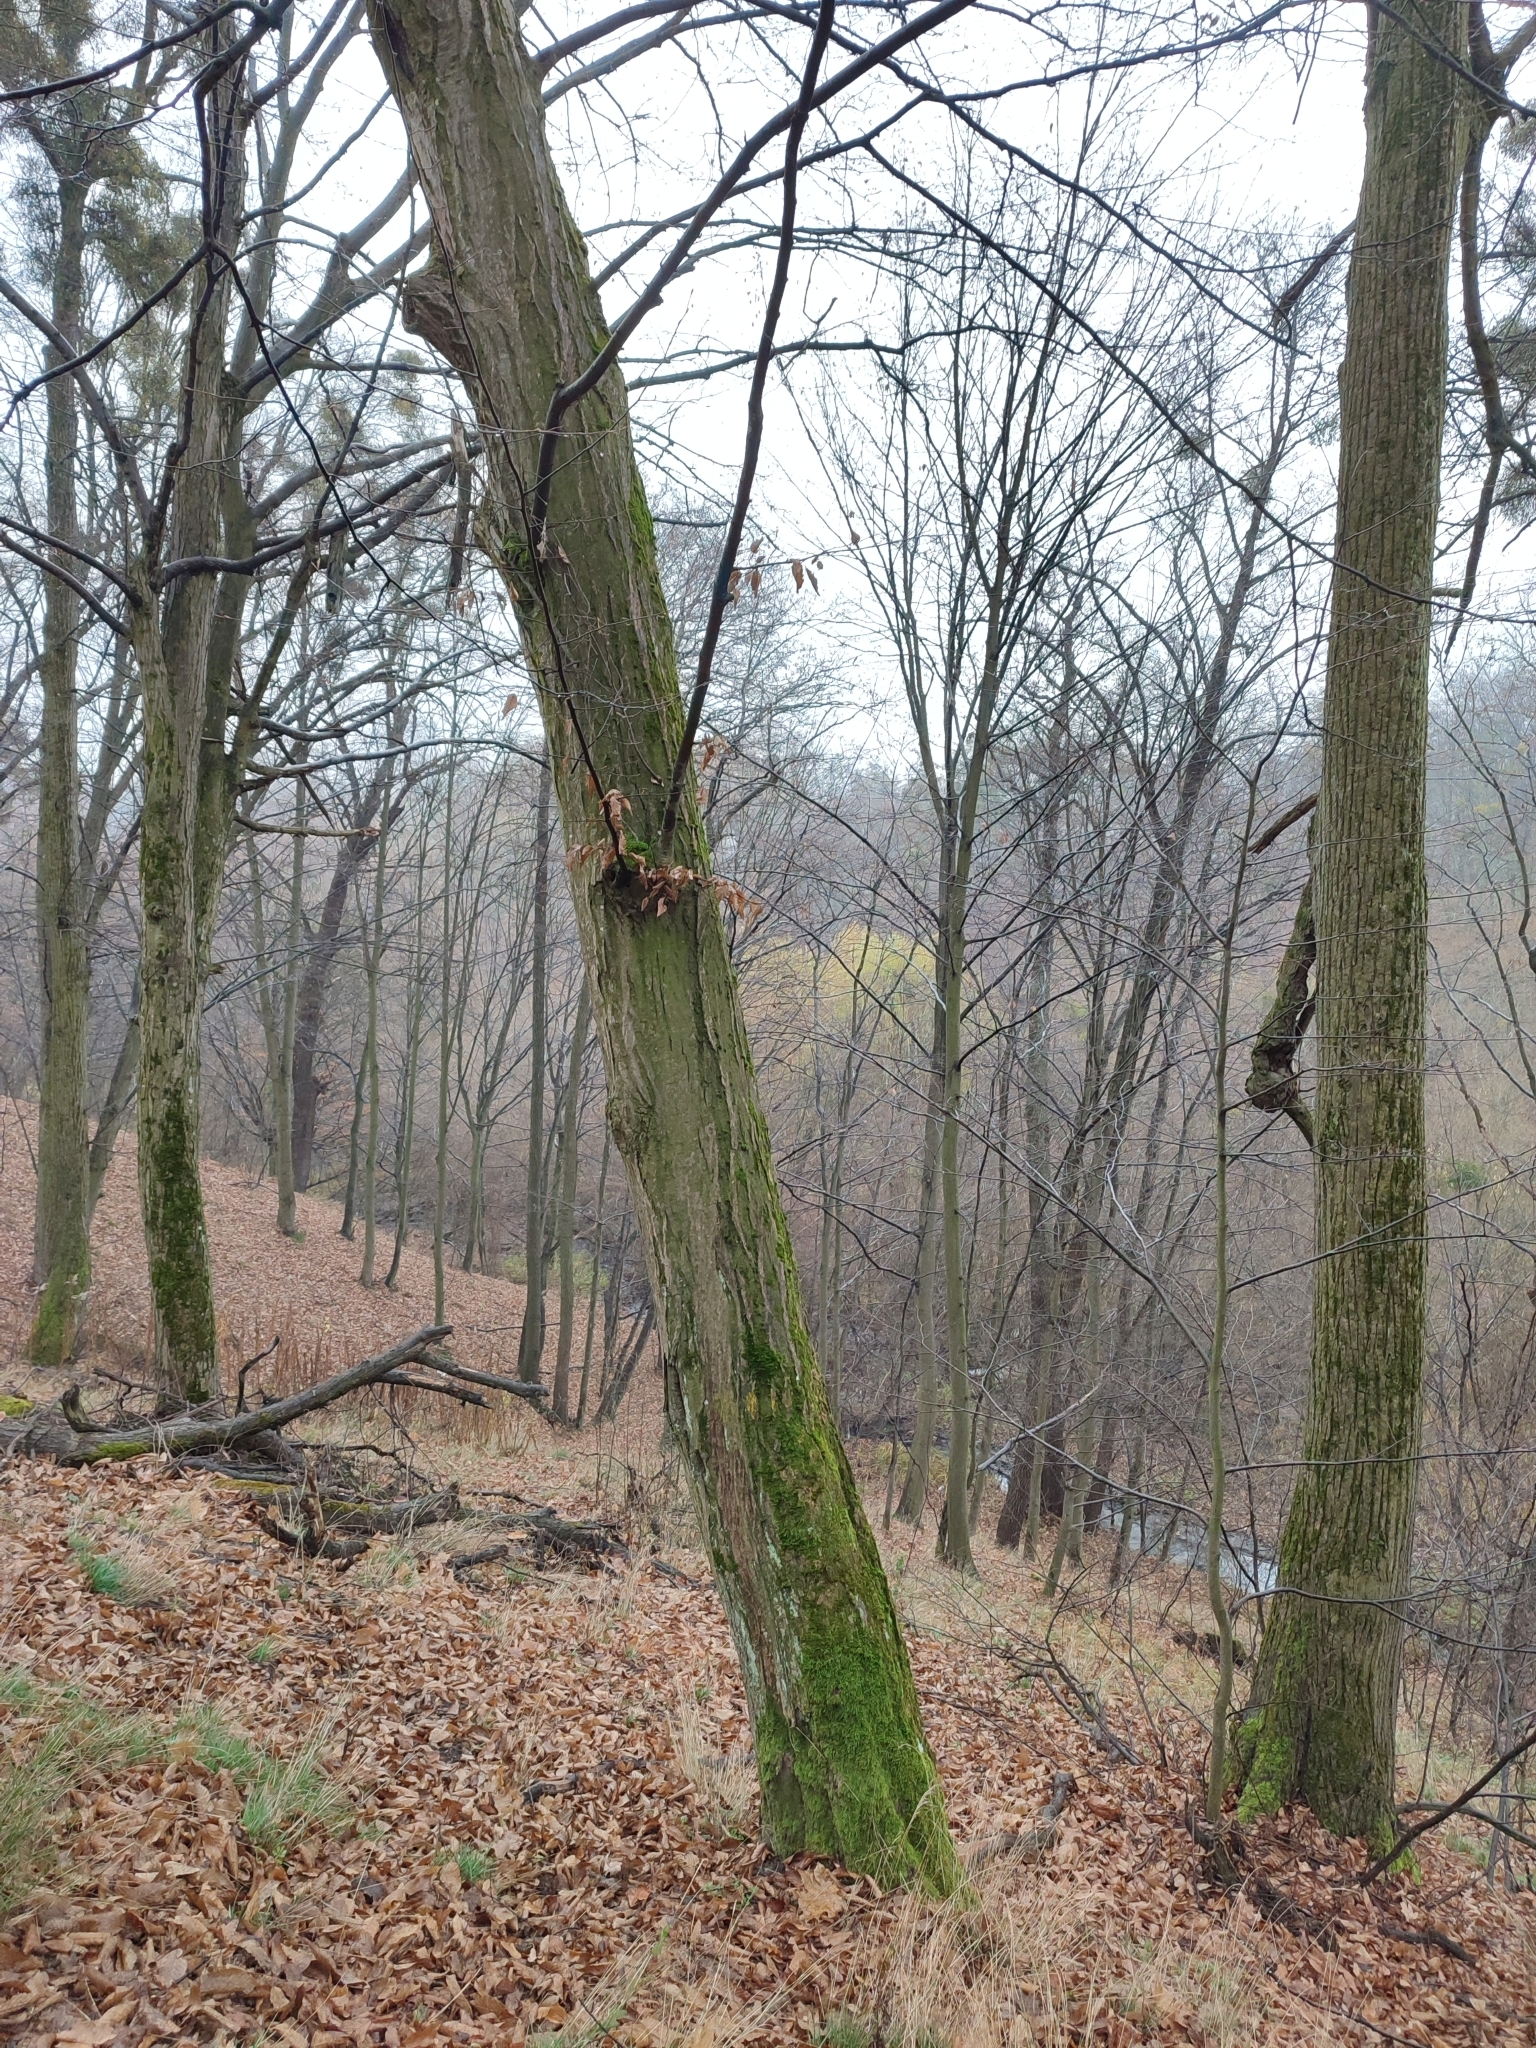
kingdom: Plantae
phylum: Tracheophyta
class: Magnoliopsida
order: Fagales
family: Betulaceae
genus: Carpinus
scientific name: Carpinus betulus
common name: Hornbeam
